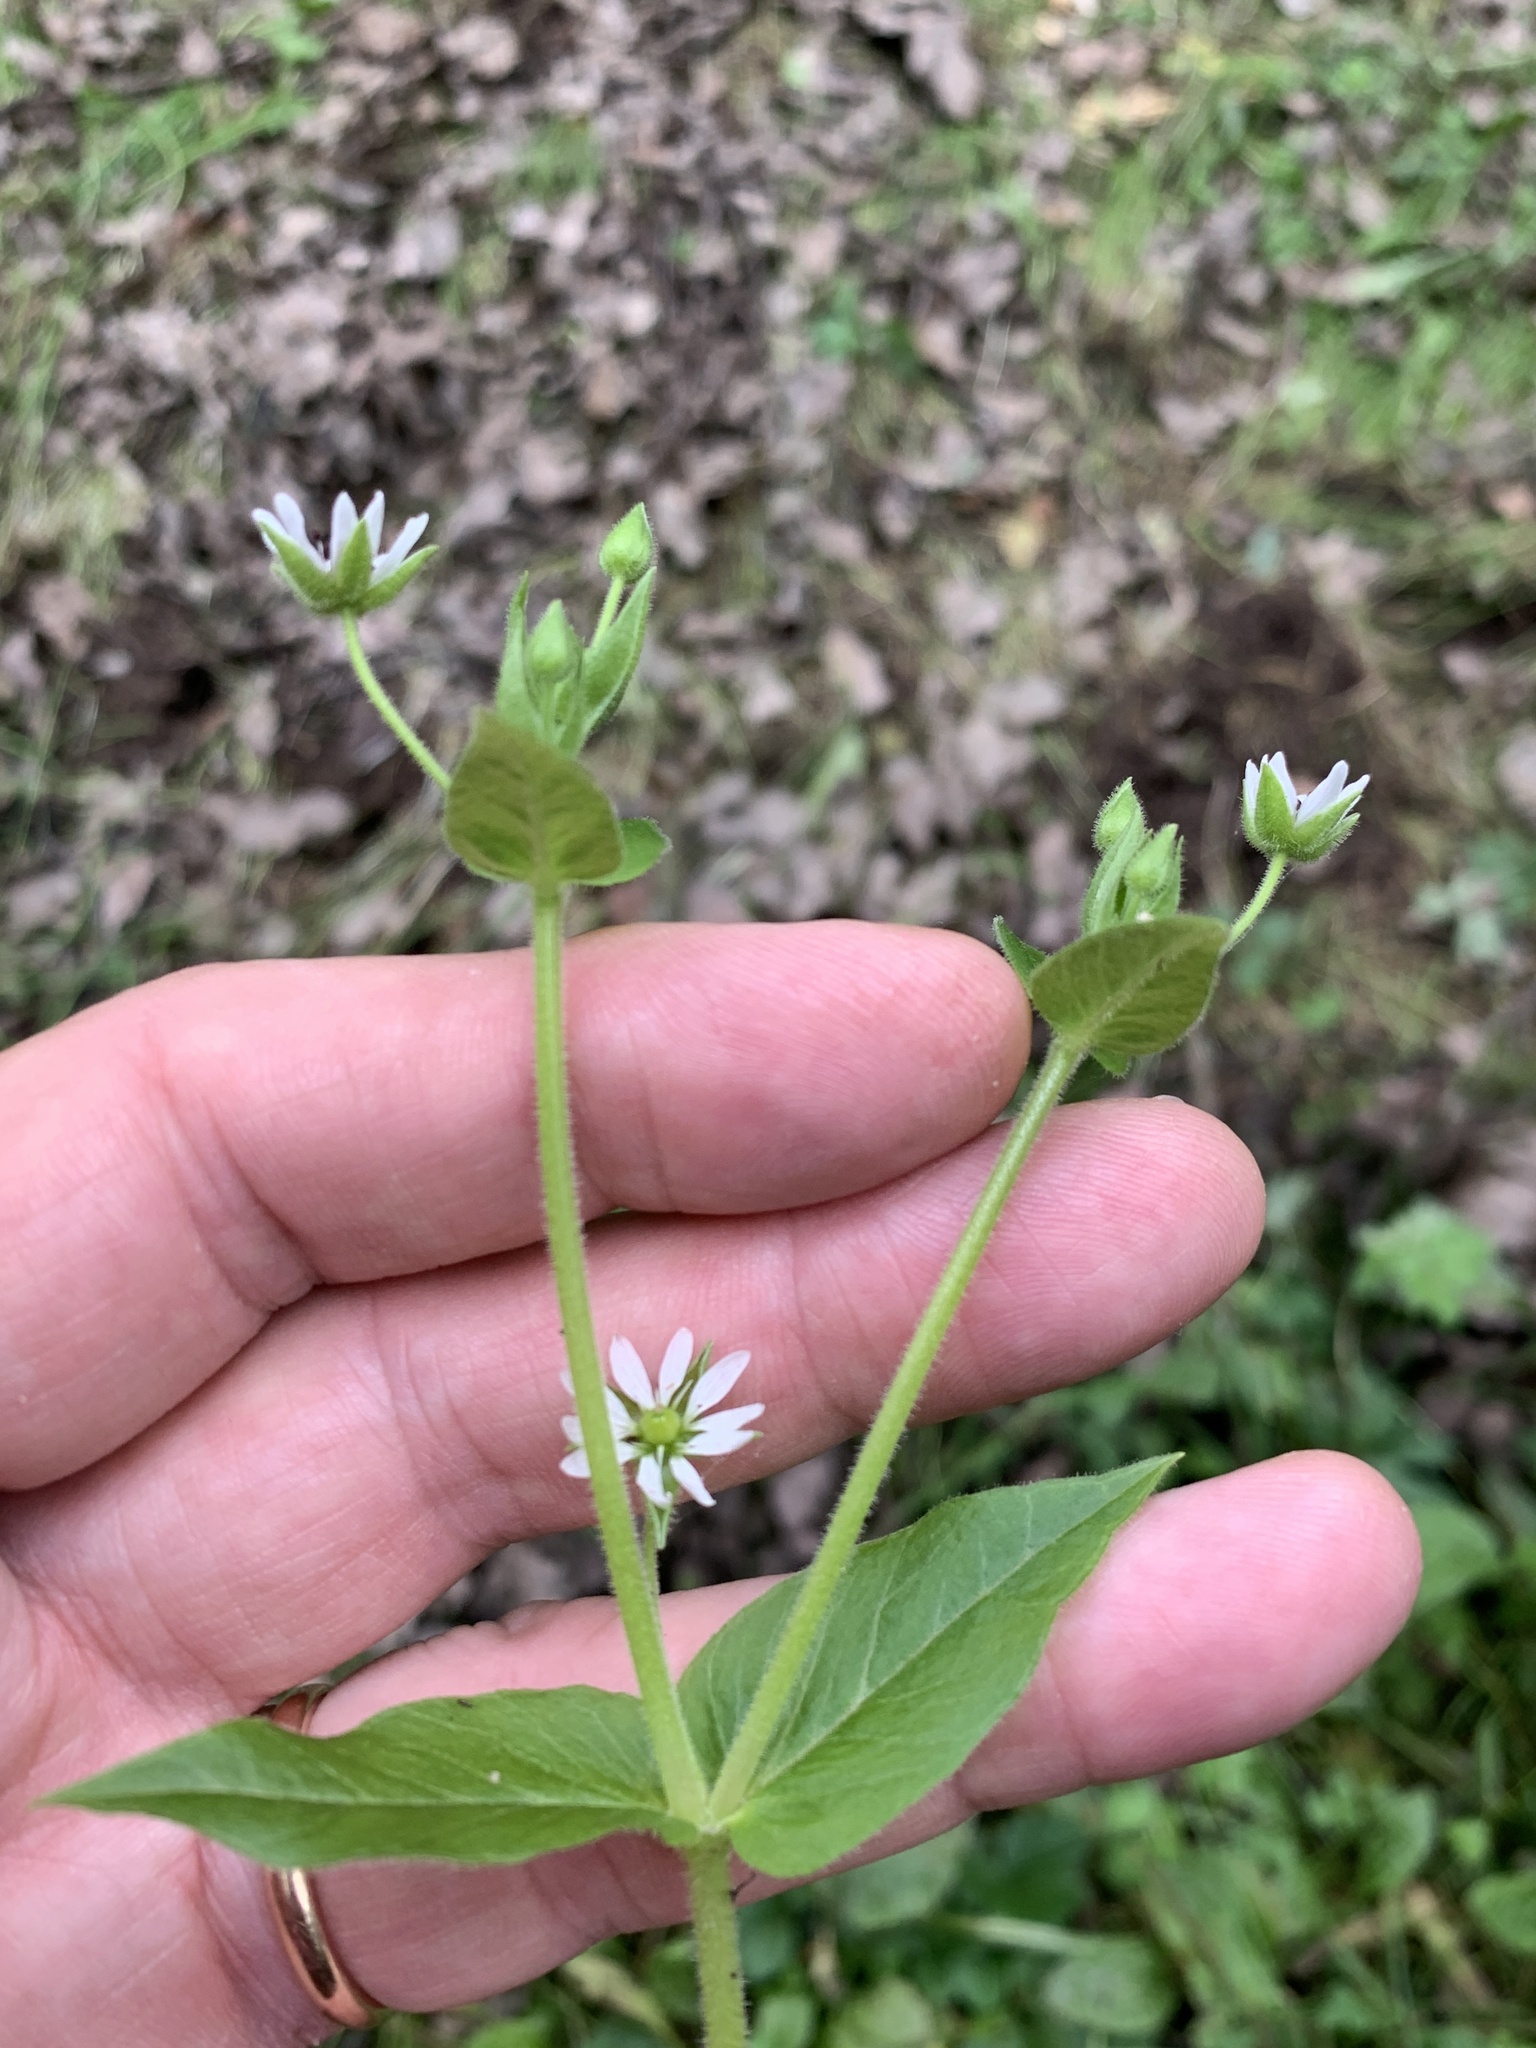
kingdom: Plantae
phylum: Tracheophyta
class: Magnoliopsida
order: Caryophyllales
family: Caryophyllaceae
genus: Stellaria
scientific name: Stellaria aquatica
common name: Water chickweed
